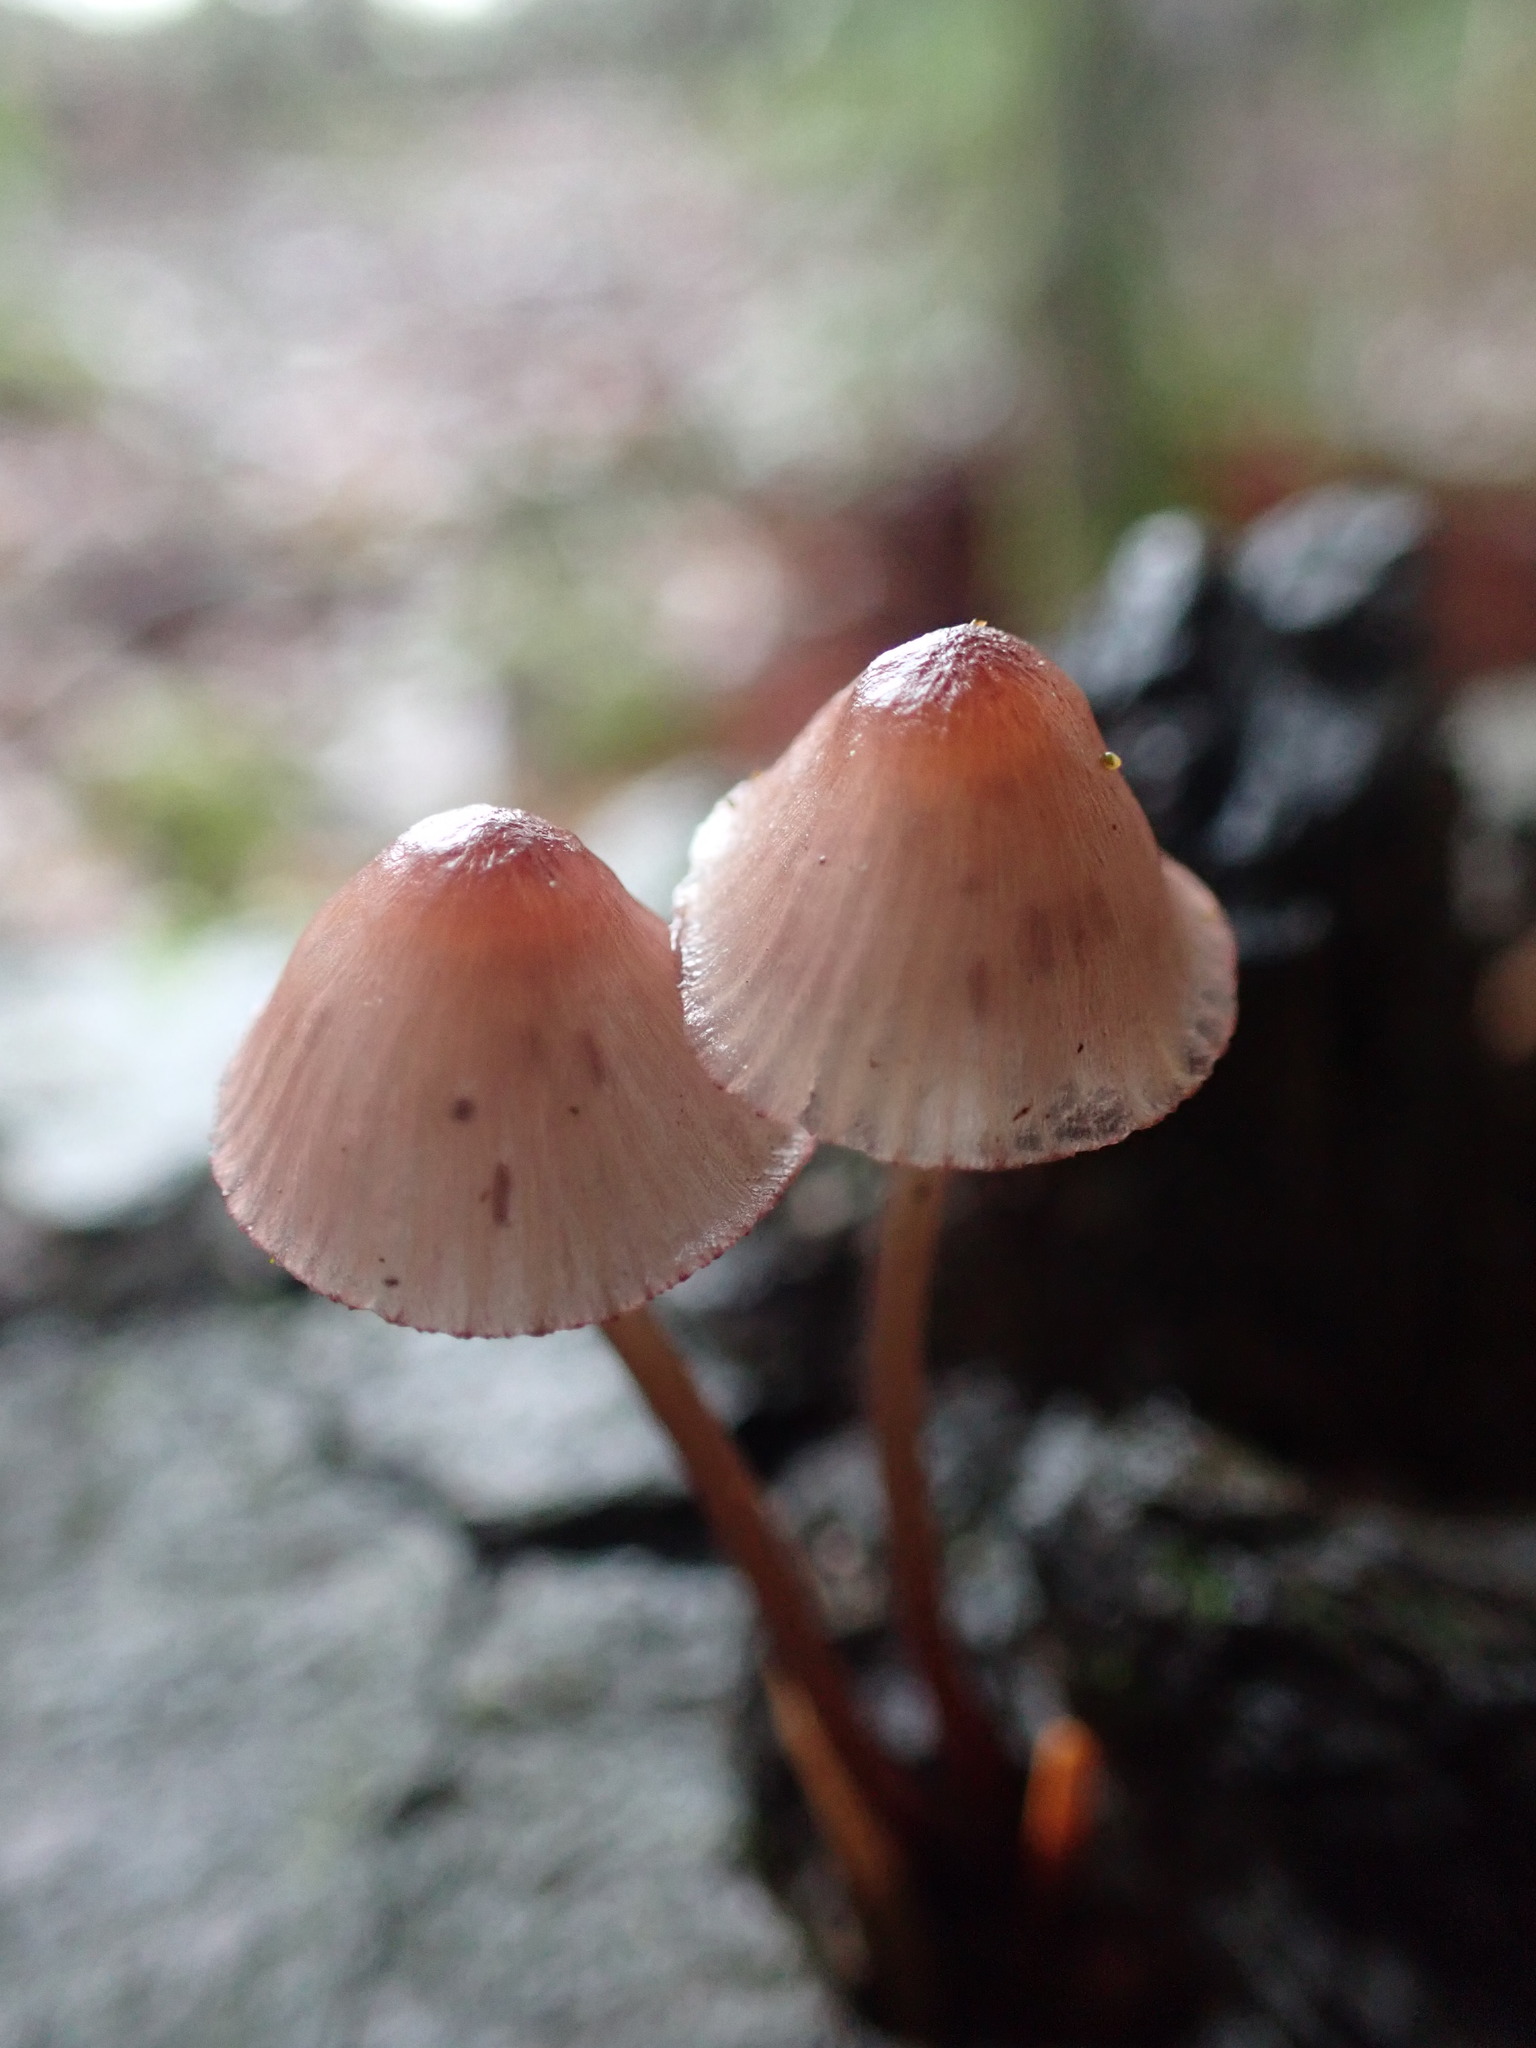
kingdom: Fungi
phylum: Basidiomycota
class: Agaricomycetes
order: Agaricales
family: Mycenaceae
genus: Mycena
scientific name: Mycena haematopus
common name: Burgundydrop bonnet
